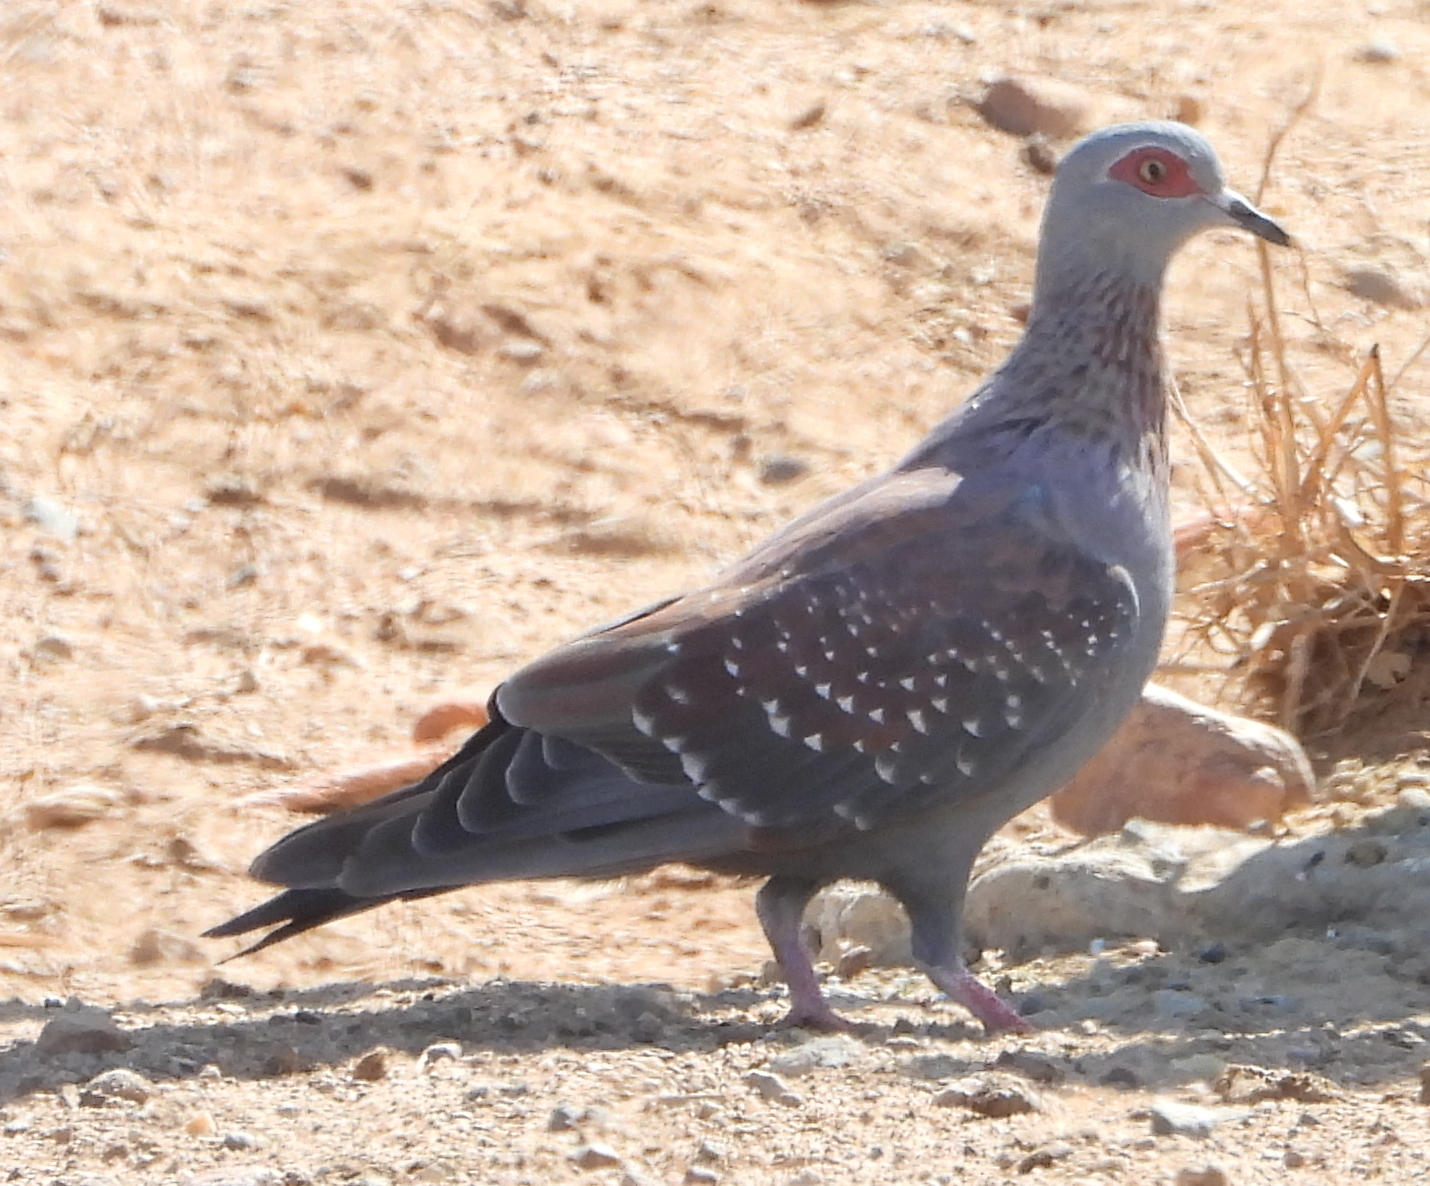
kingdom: Animalia
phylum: Chordata
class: Aves
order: Columbiformes
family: Columbidae
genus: Columba
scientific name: Columba guinea
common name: Speckled pigeon
